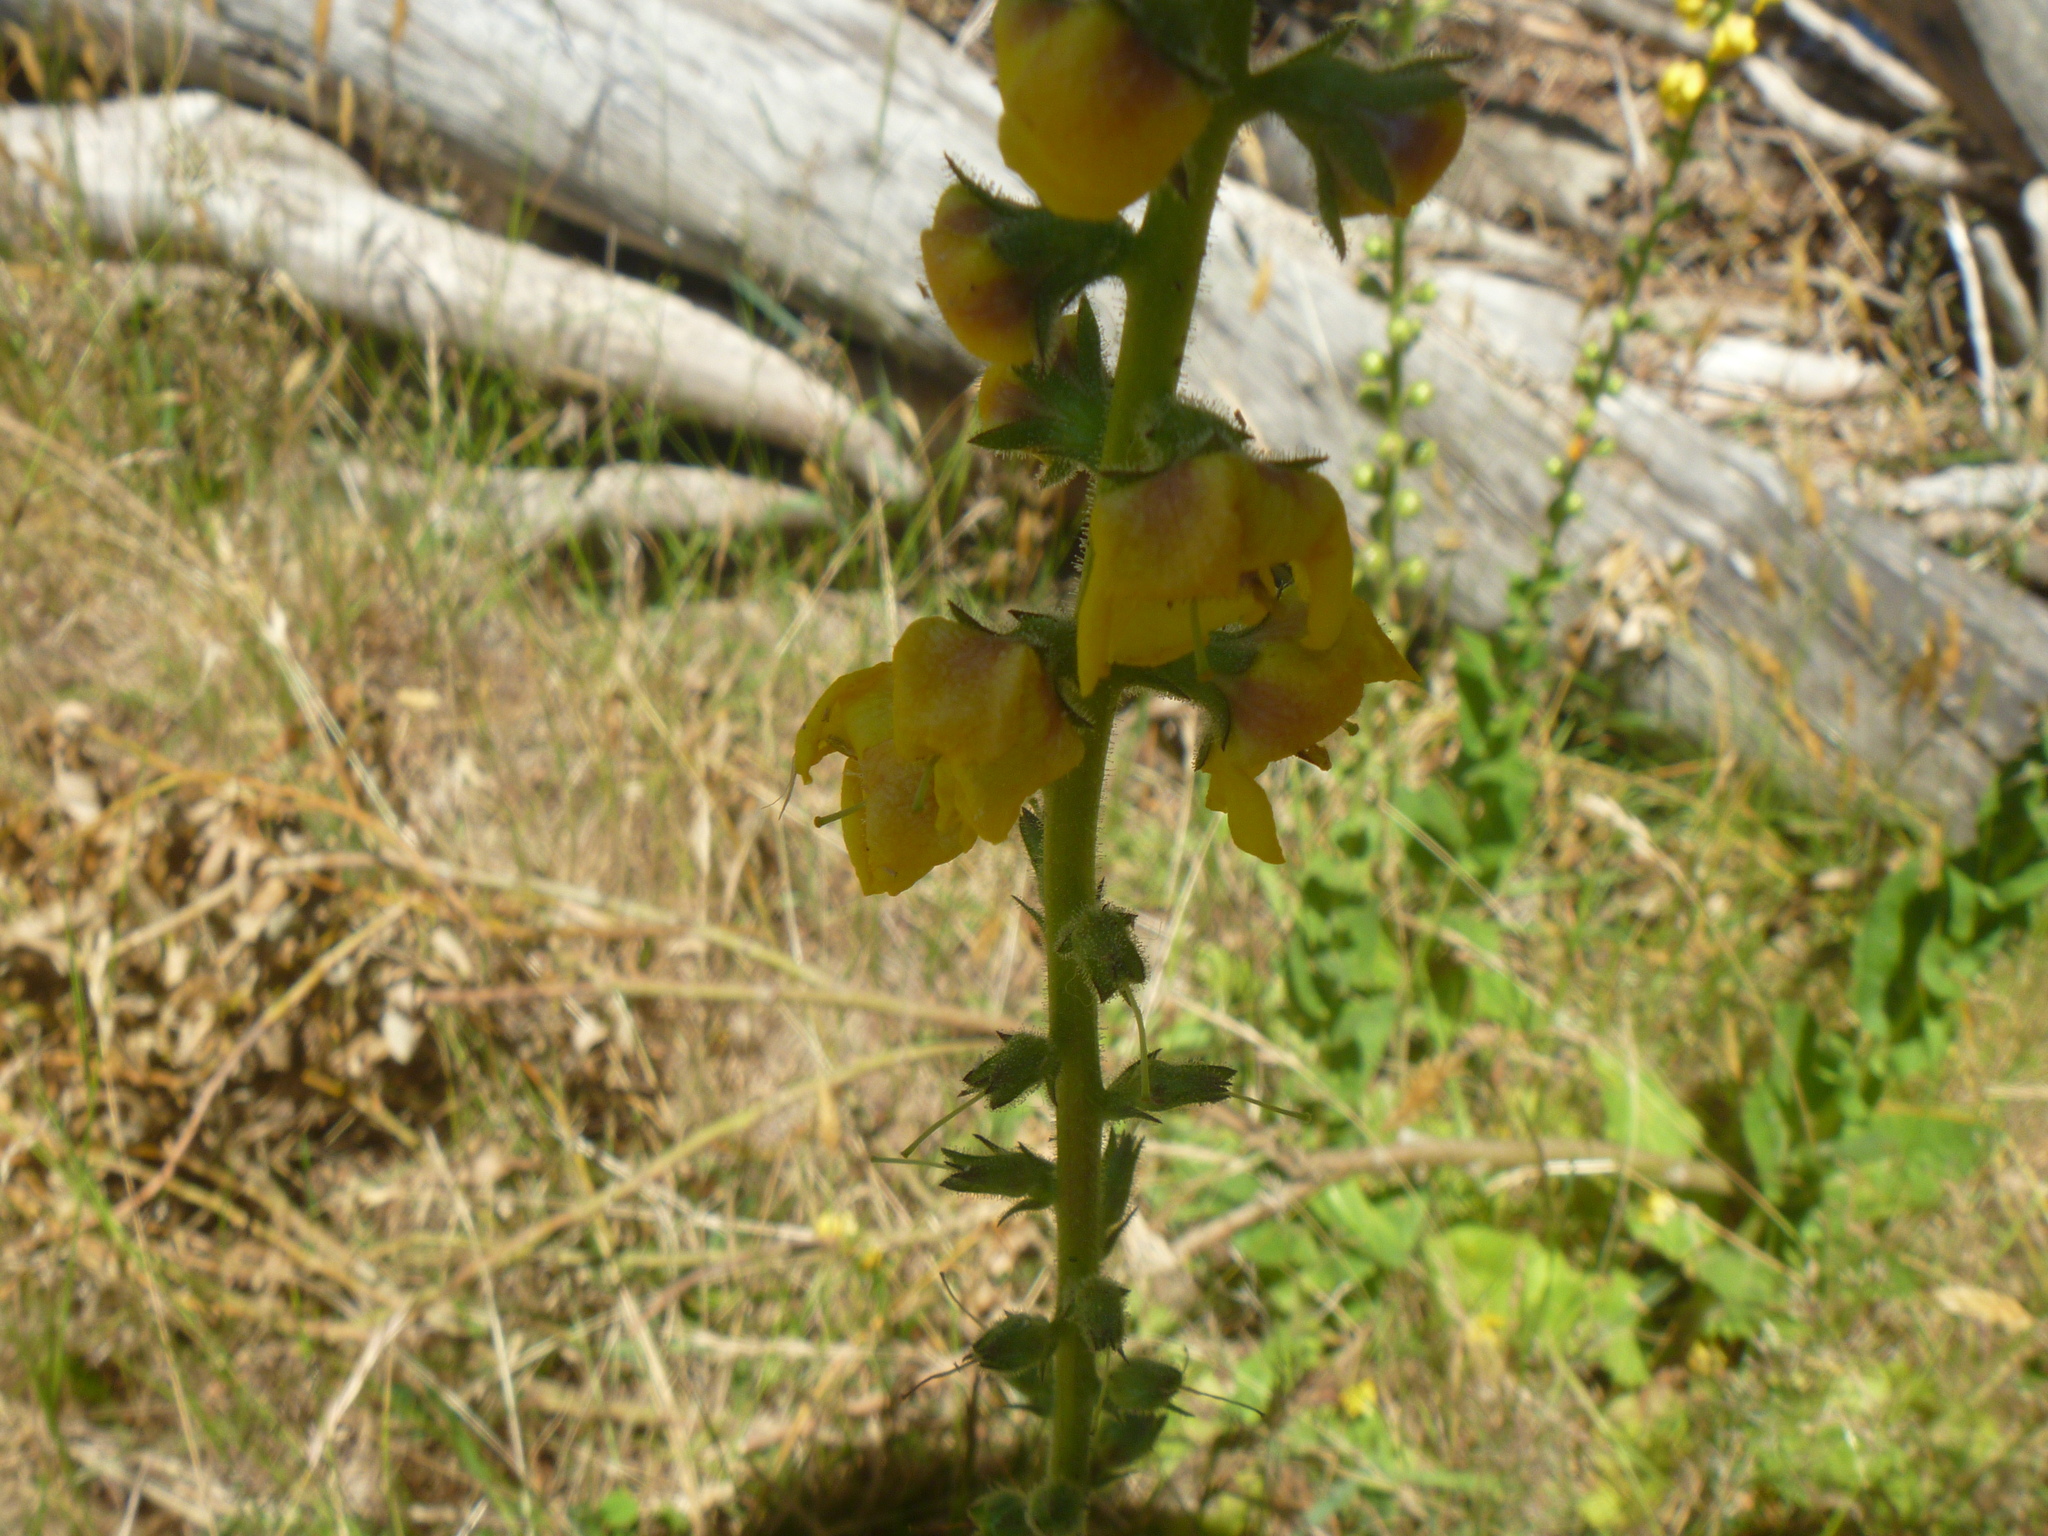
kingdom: Plantae
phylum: Tracheophyta
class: Magnoliopsida
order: Lamiales
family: Scrophulariaceae
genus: Verbascum
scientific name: Verbascum virgatum
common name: Twiggy mullein
